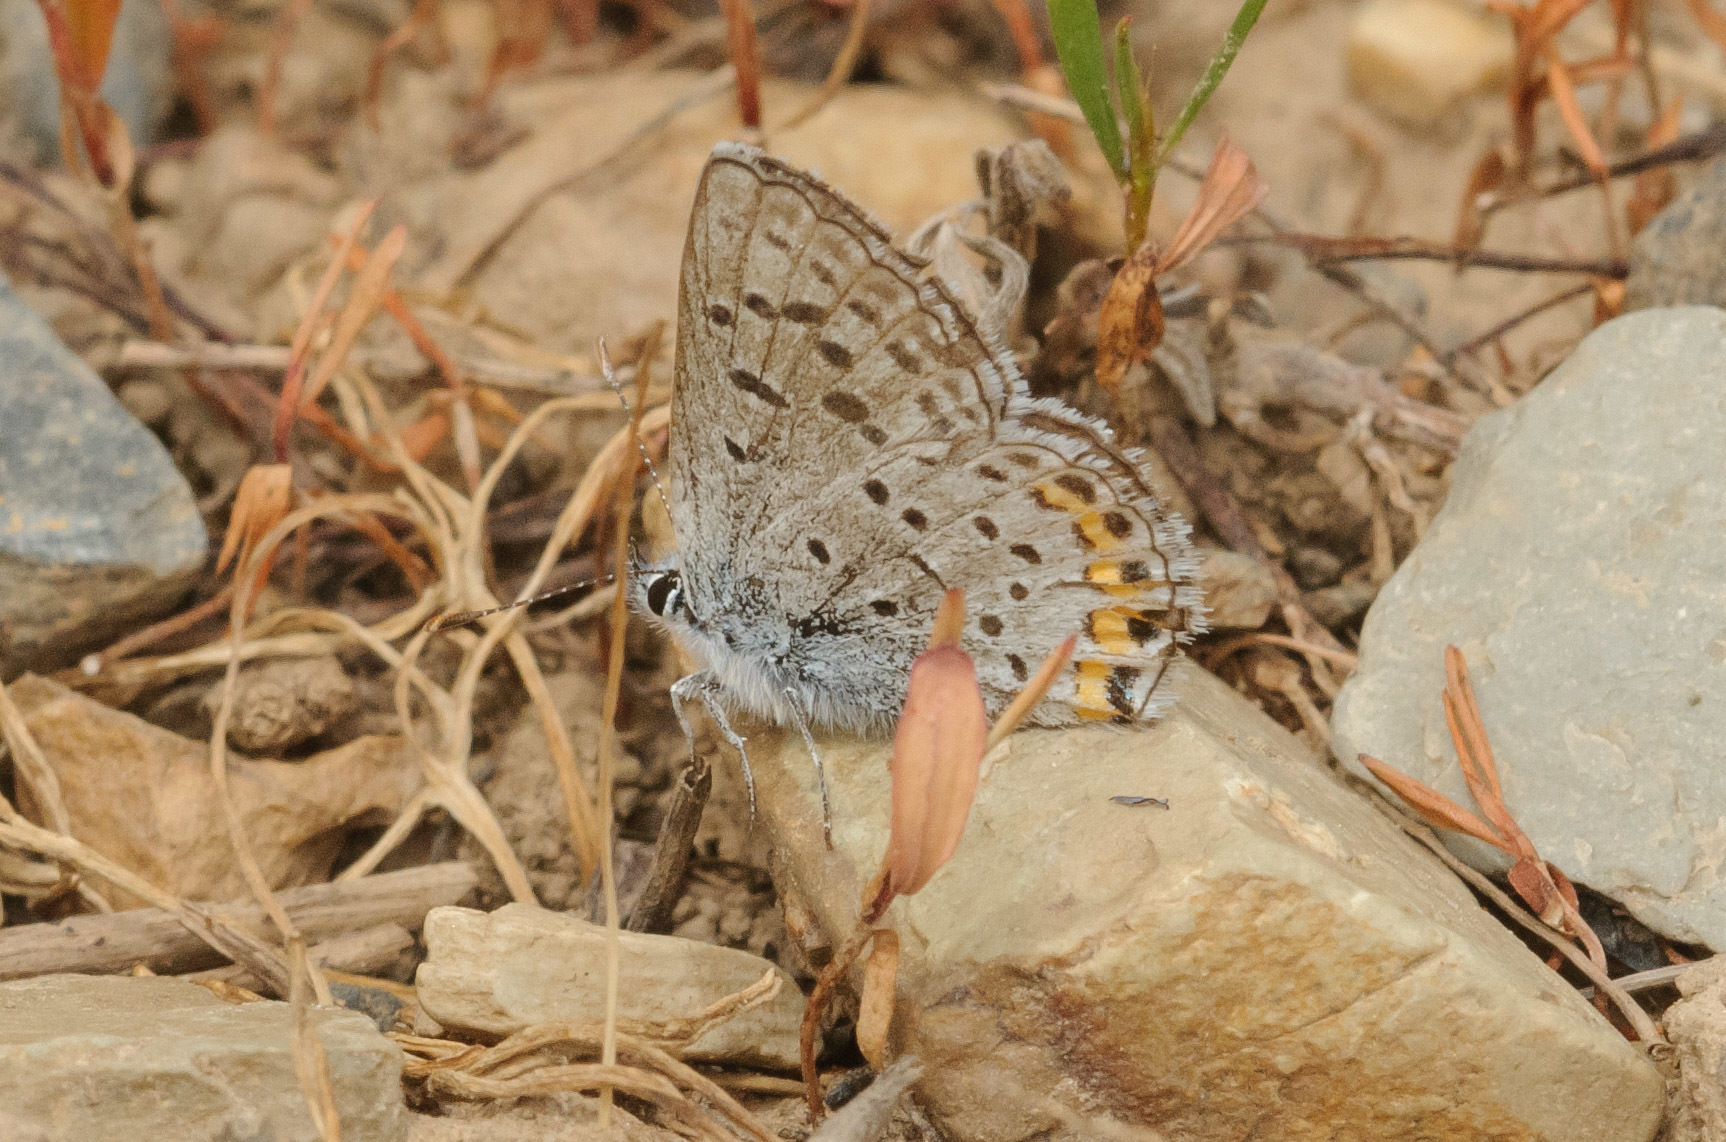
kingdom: Animalia
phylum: Arthropoda
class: Insecta
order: Lepidoptera
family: Lycaenidae
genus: Icaricia
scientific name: Icaricia lupini
